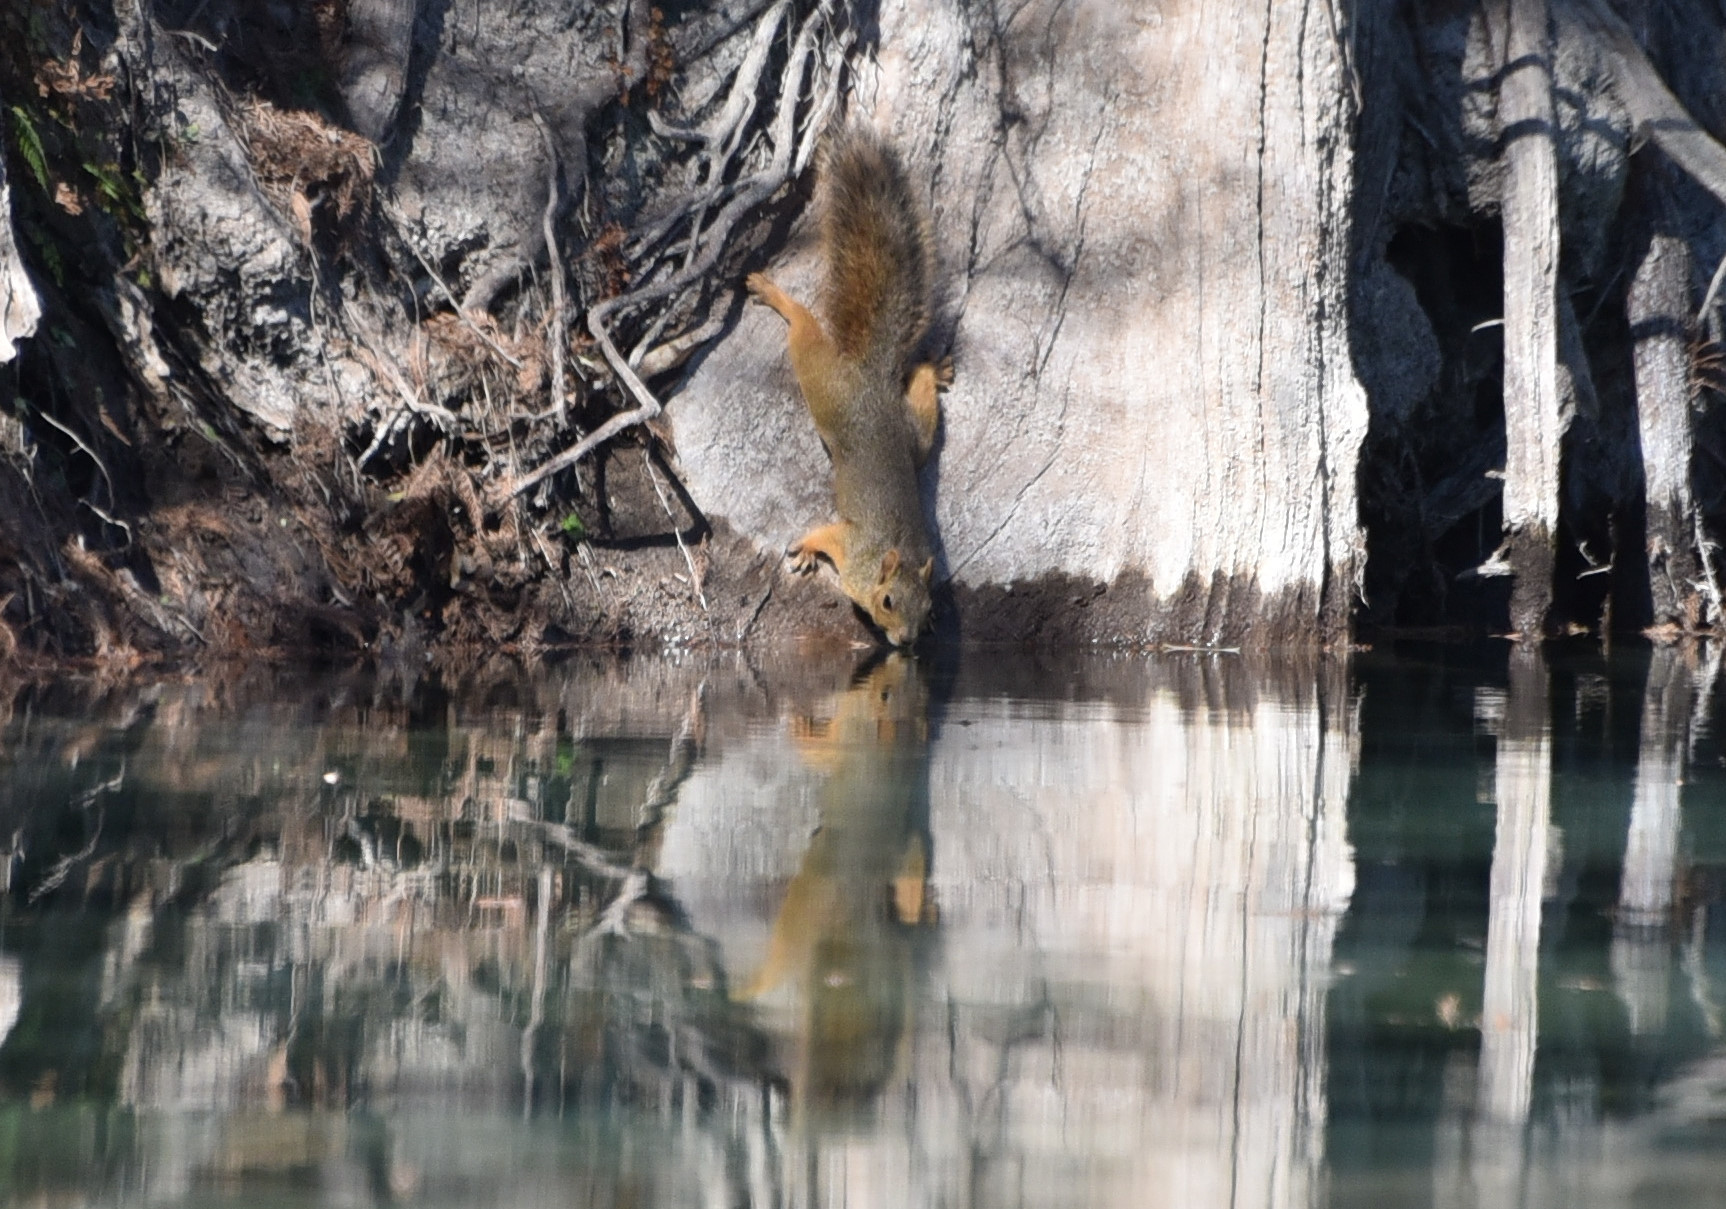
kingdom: Animalia
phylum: Chordata
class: Mammalia
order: Rodentia
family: Sciuridae
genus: Sciurus
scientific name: Sciurus niger
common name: Fox squirrel
